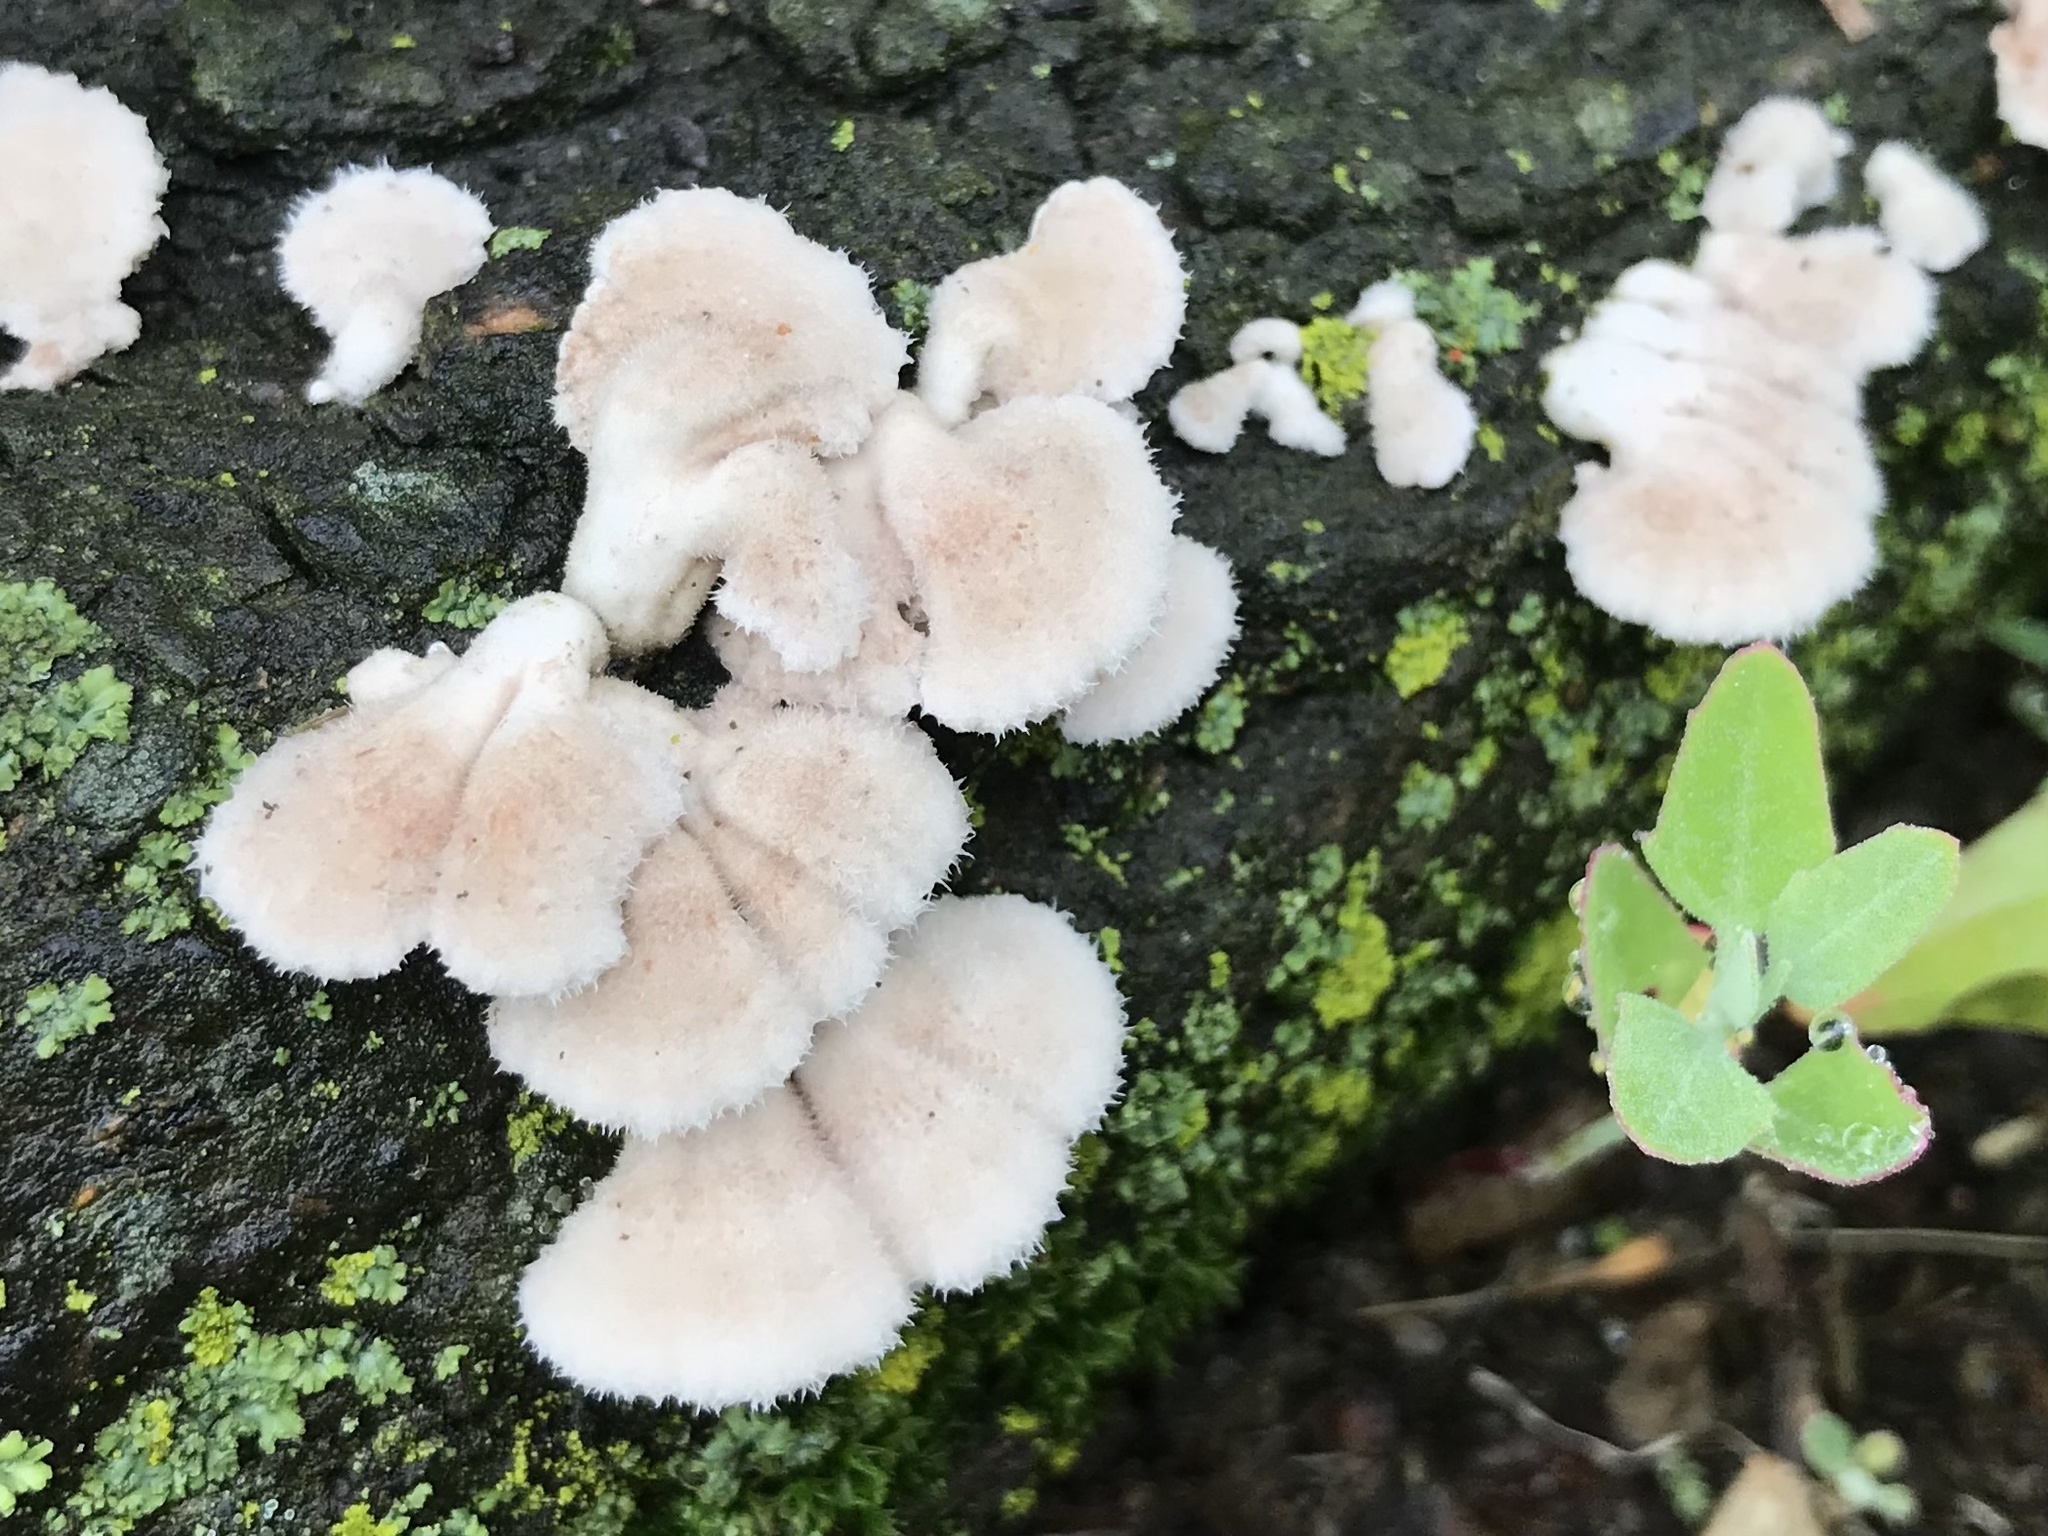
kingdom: Fungi
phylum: Basidiomycota
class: Agaricomycetes
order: Agaricales
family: Schizophyllaceae
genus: Schizophyllum
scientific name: Schizophyllum commune
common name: Common porecrust
